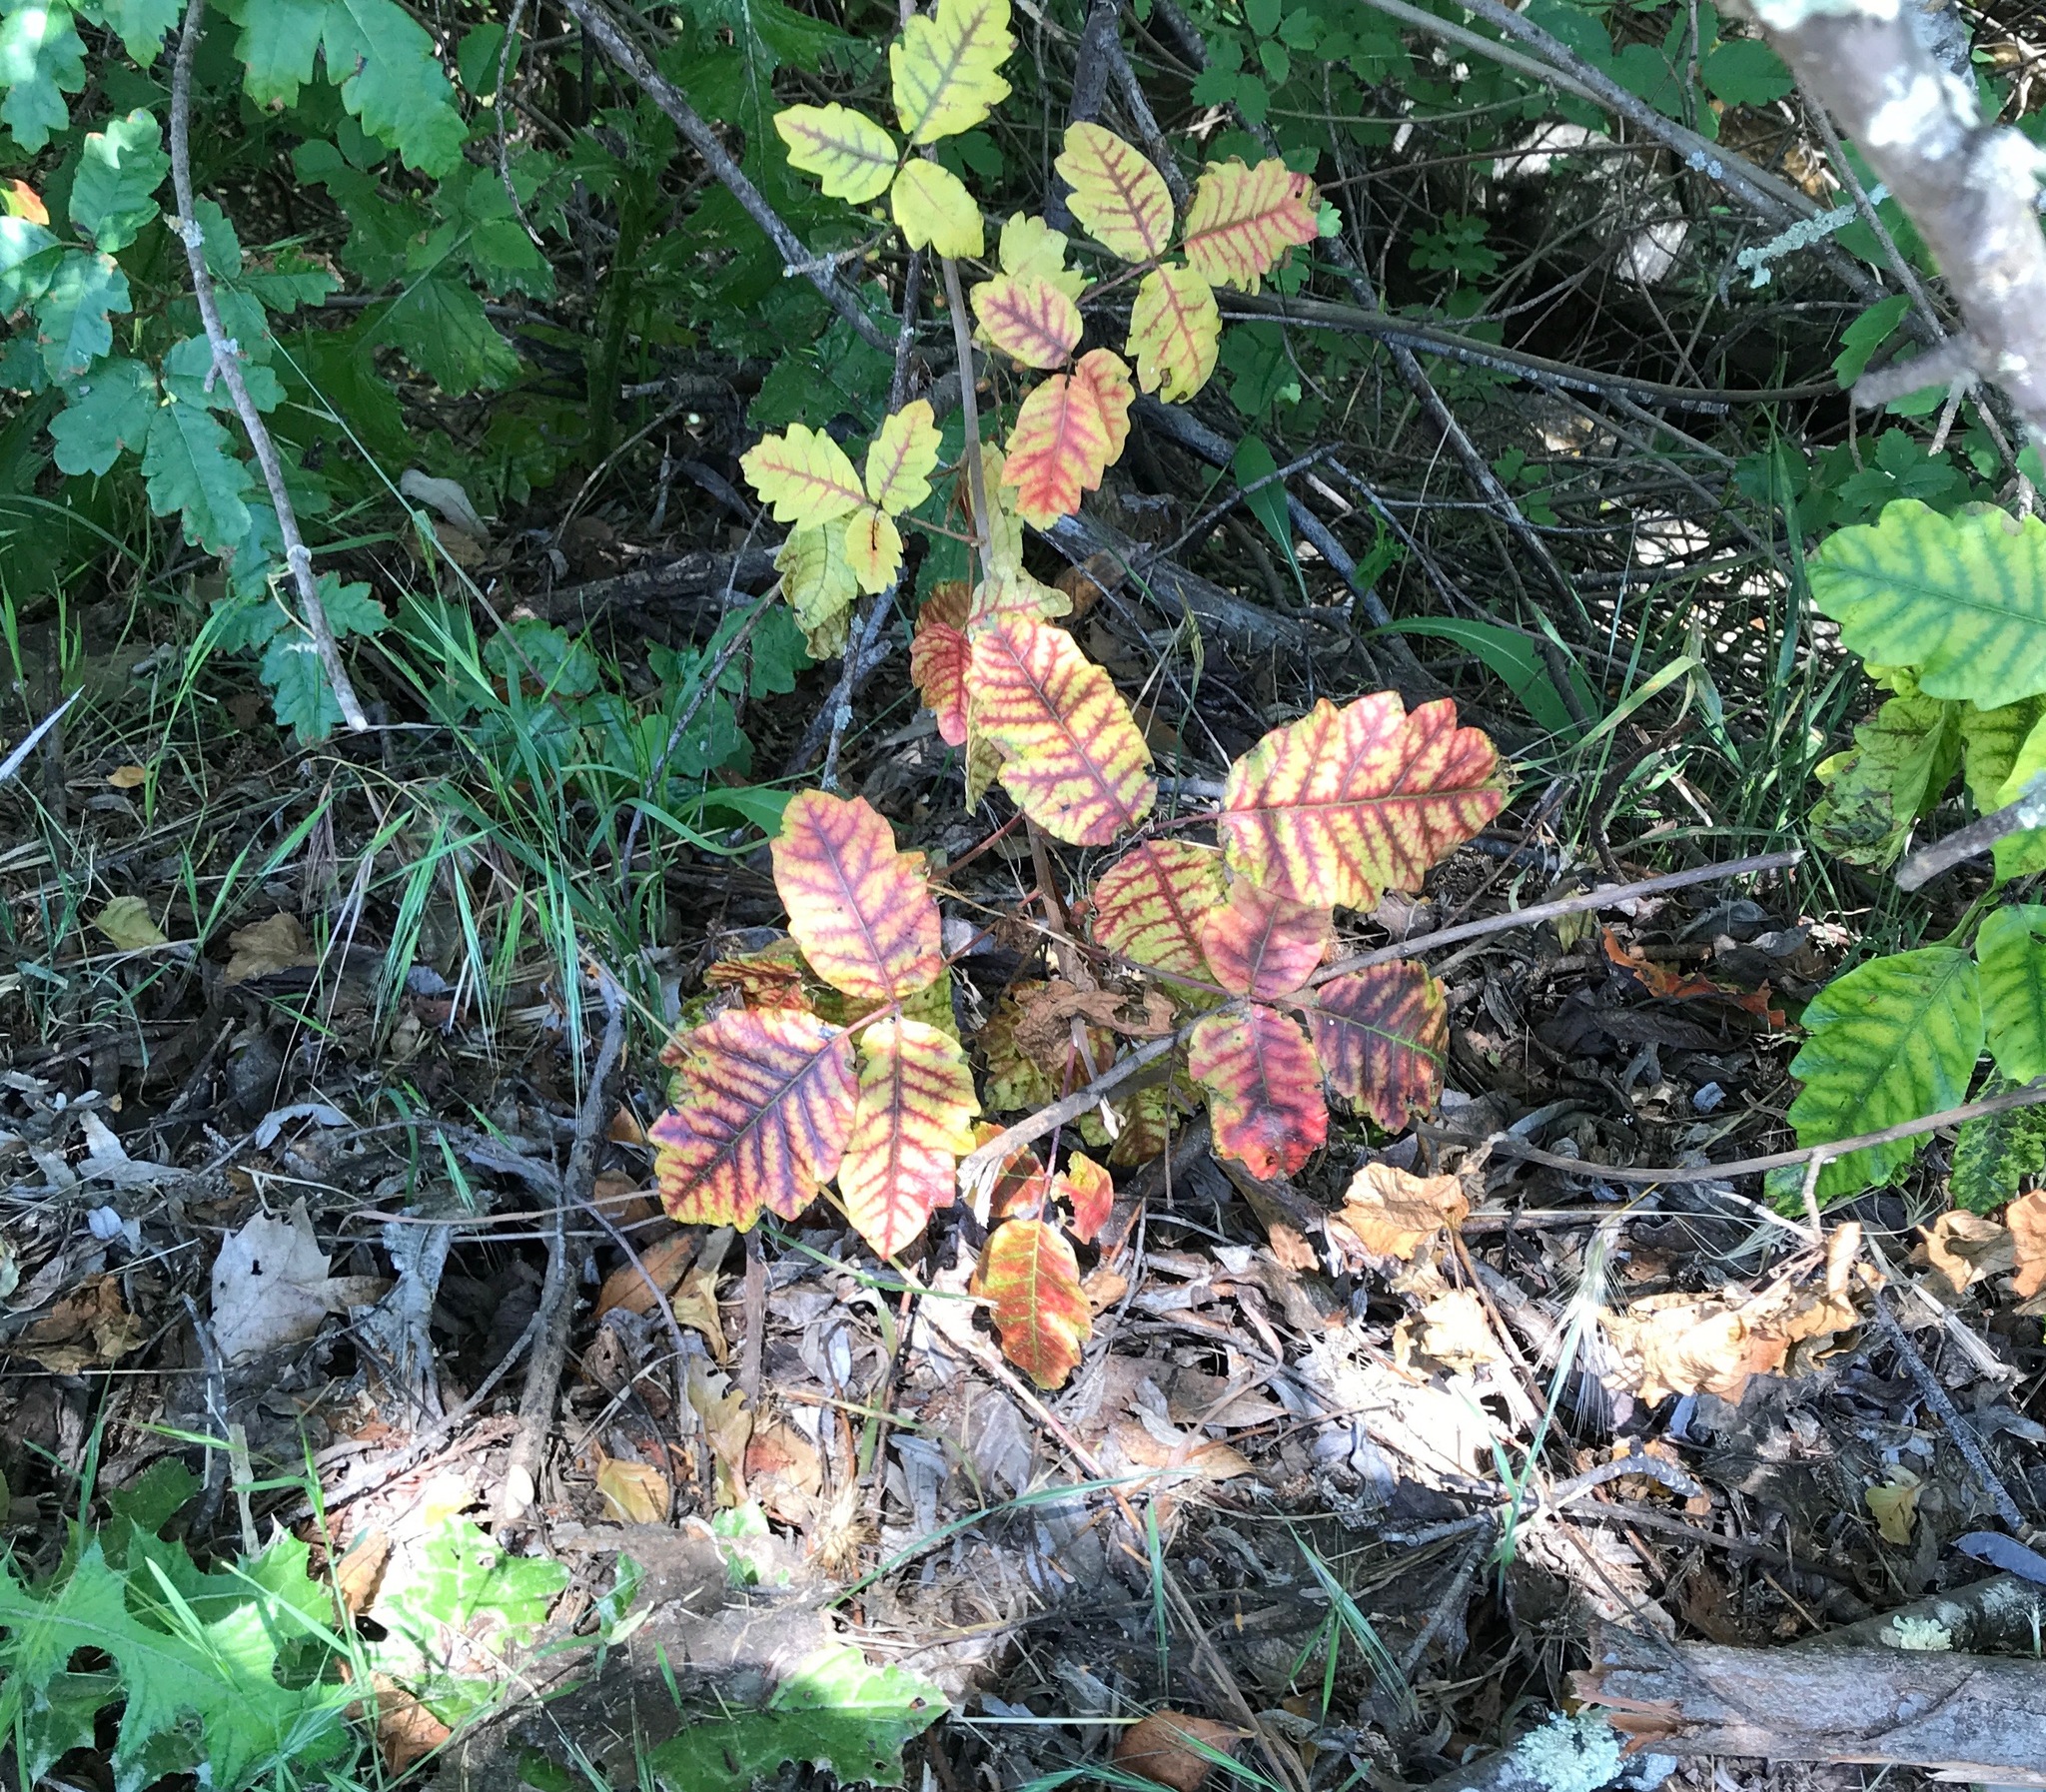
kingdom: Plantae
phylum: Tracheophyta
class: Magnoliopsida
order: Sapindales
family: Anacardiaceae
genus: Toxicodendron
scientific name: Toxicodendron diversilobum
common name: Pacific poison-oak
